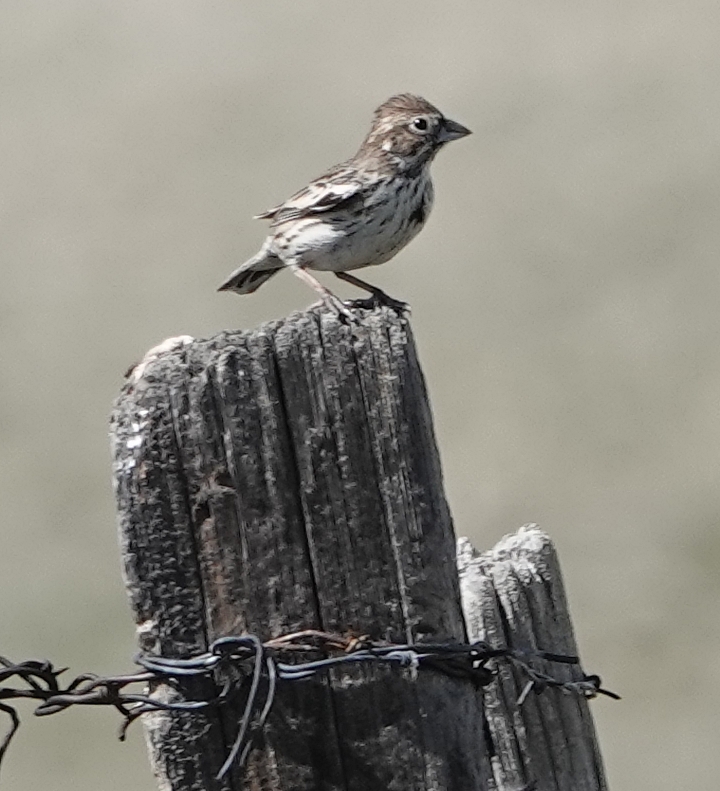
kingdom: Animalia
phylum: Chordata
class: Aves
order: Passeriformes
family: Passerellidae
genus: Calamospiza
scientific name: Calamospiza melanocorys
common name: Lark bunting
